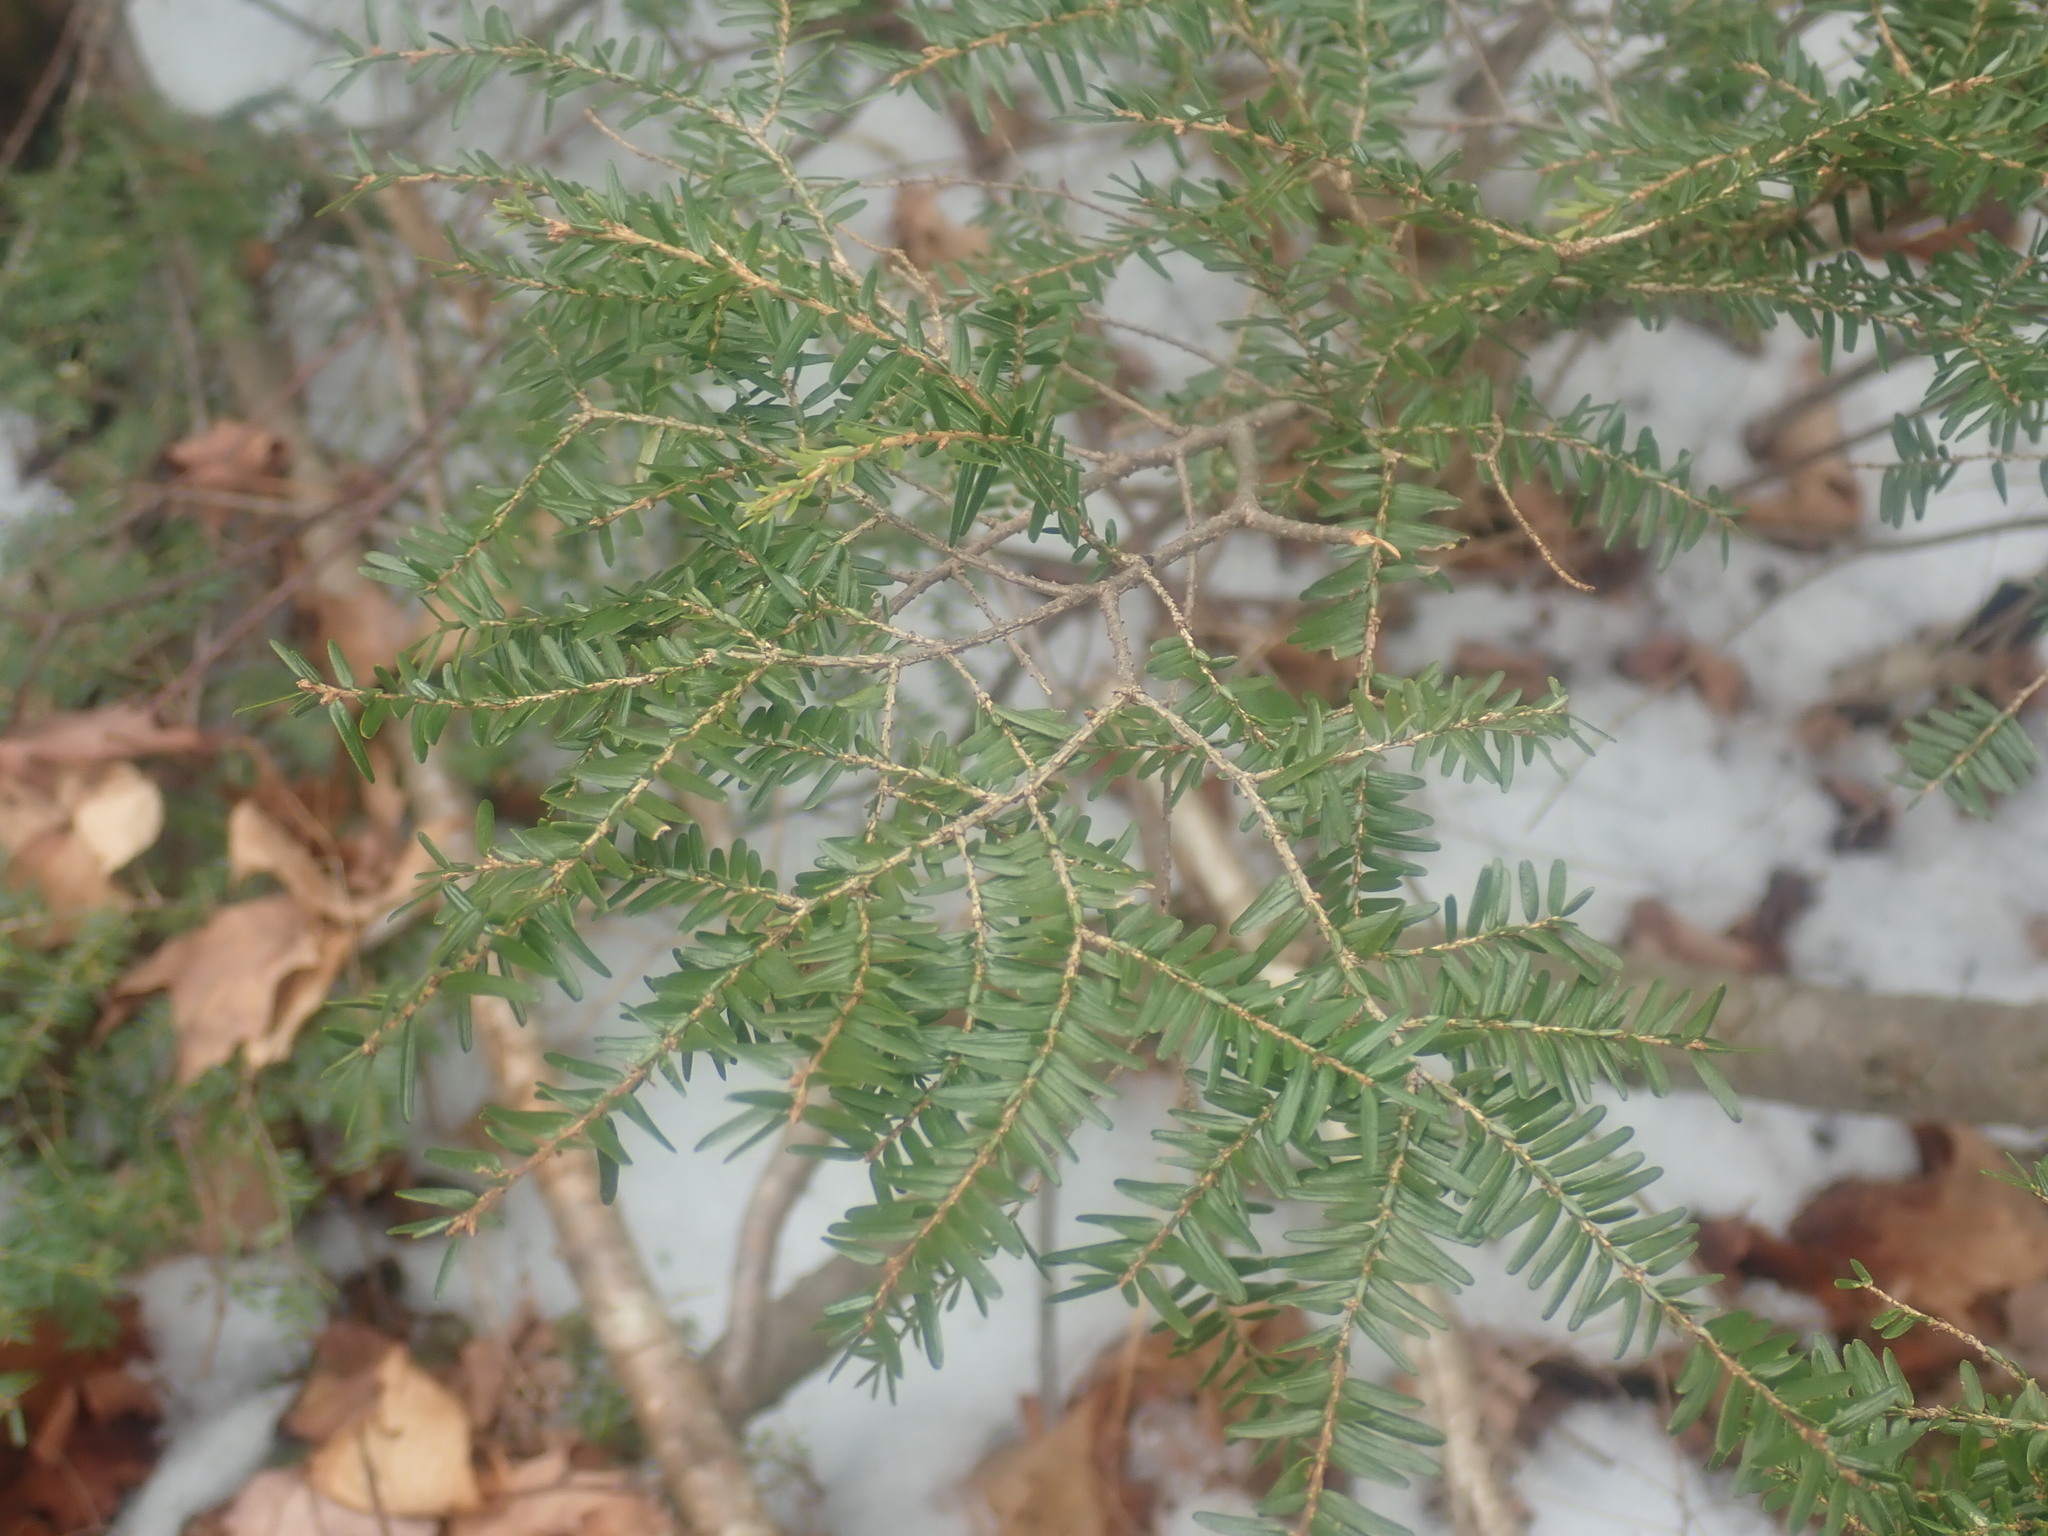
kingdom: Plantae
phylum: Tracheophyta
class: Pinopsida
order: Pinales
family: Pinaceae
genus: Tsuga
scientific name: Tsuga canadensis
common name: Eastern hemlock
